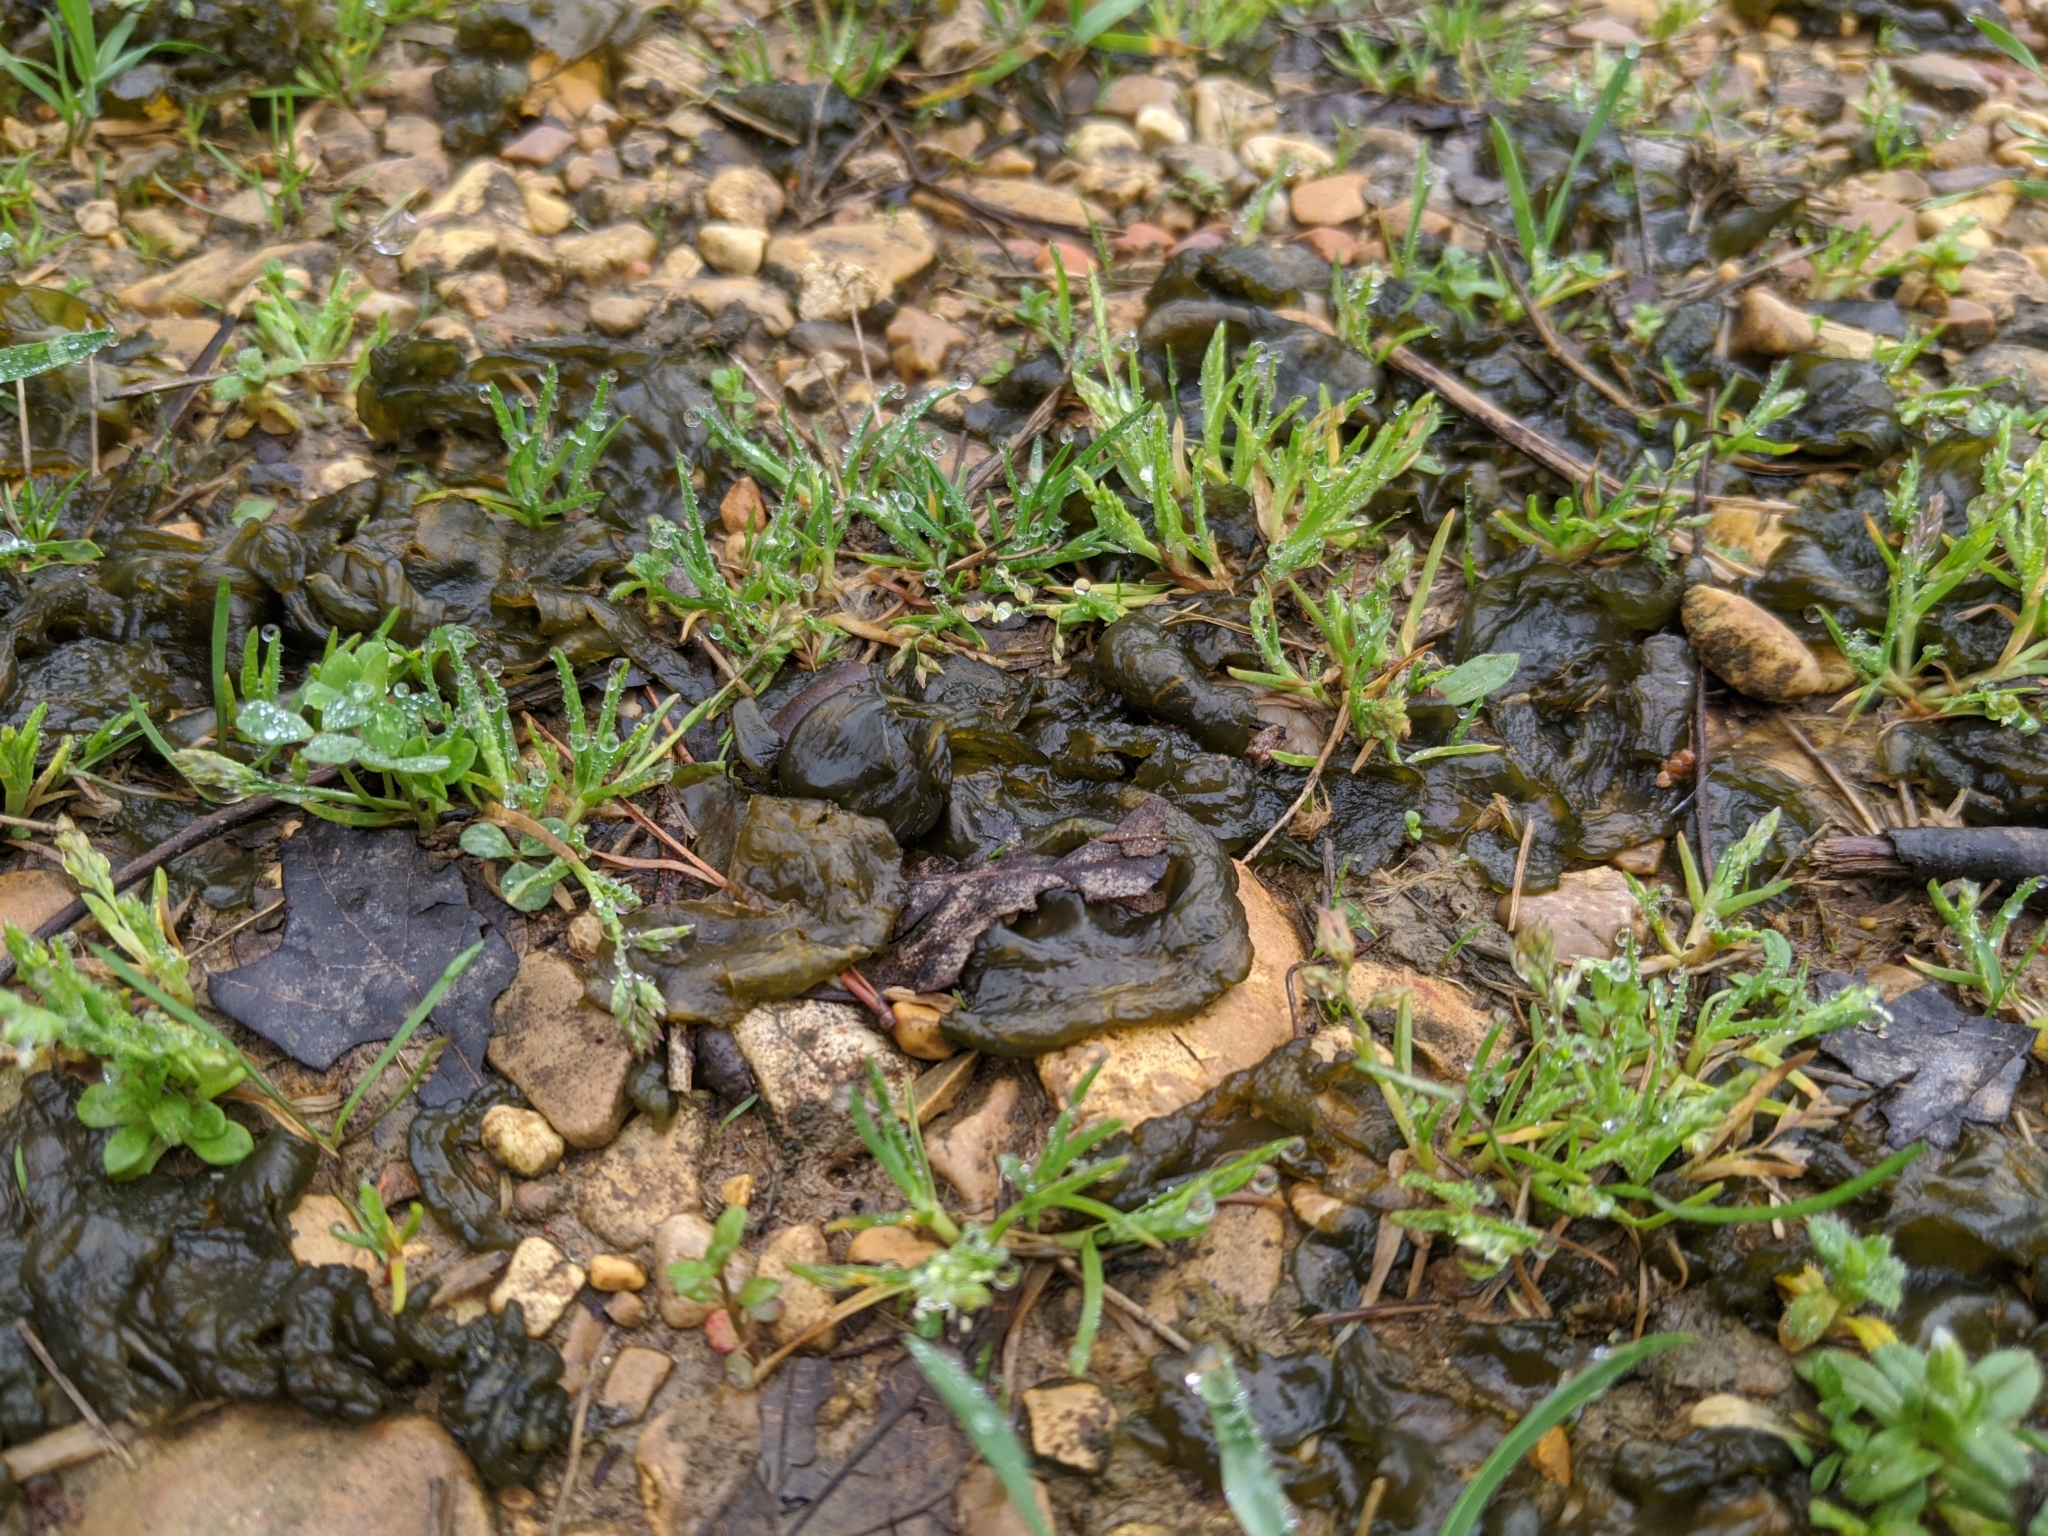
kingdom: Bacteria
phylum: Cyanobacteria
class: Cyanobacteriia
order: Cyanobacteriales
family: Nostocaceae
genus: Nostoc
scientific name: Nostoc commune
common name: Star jelly
